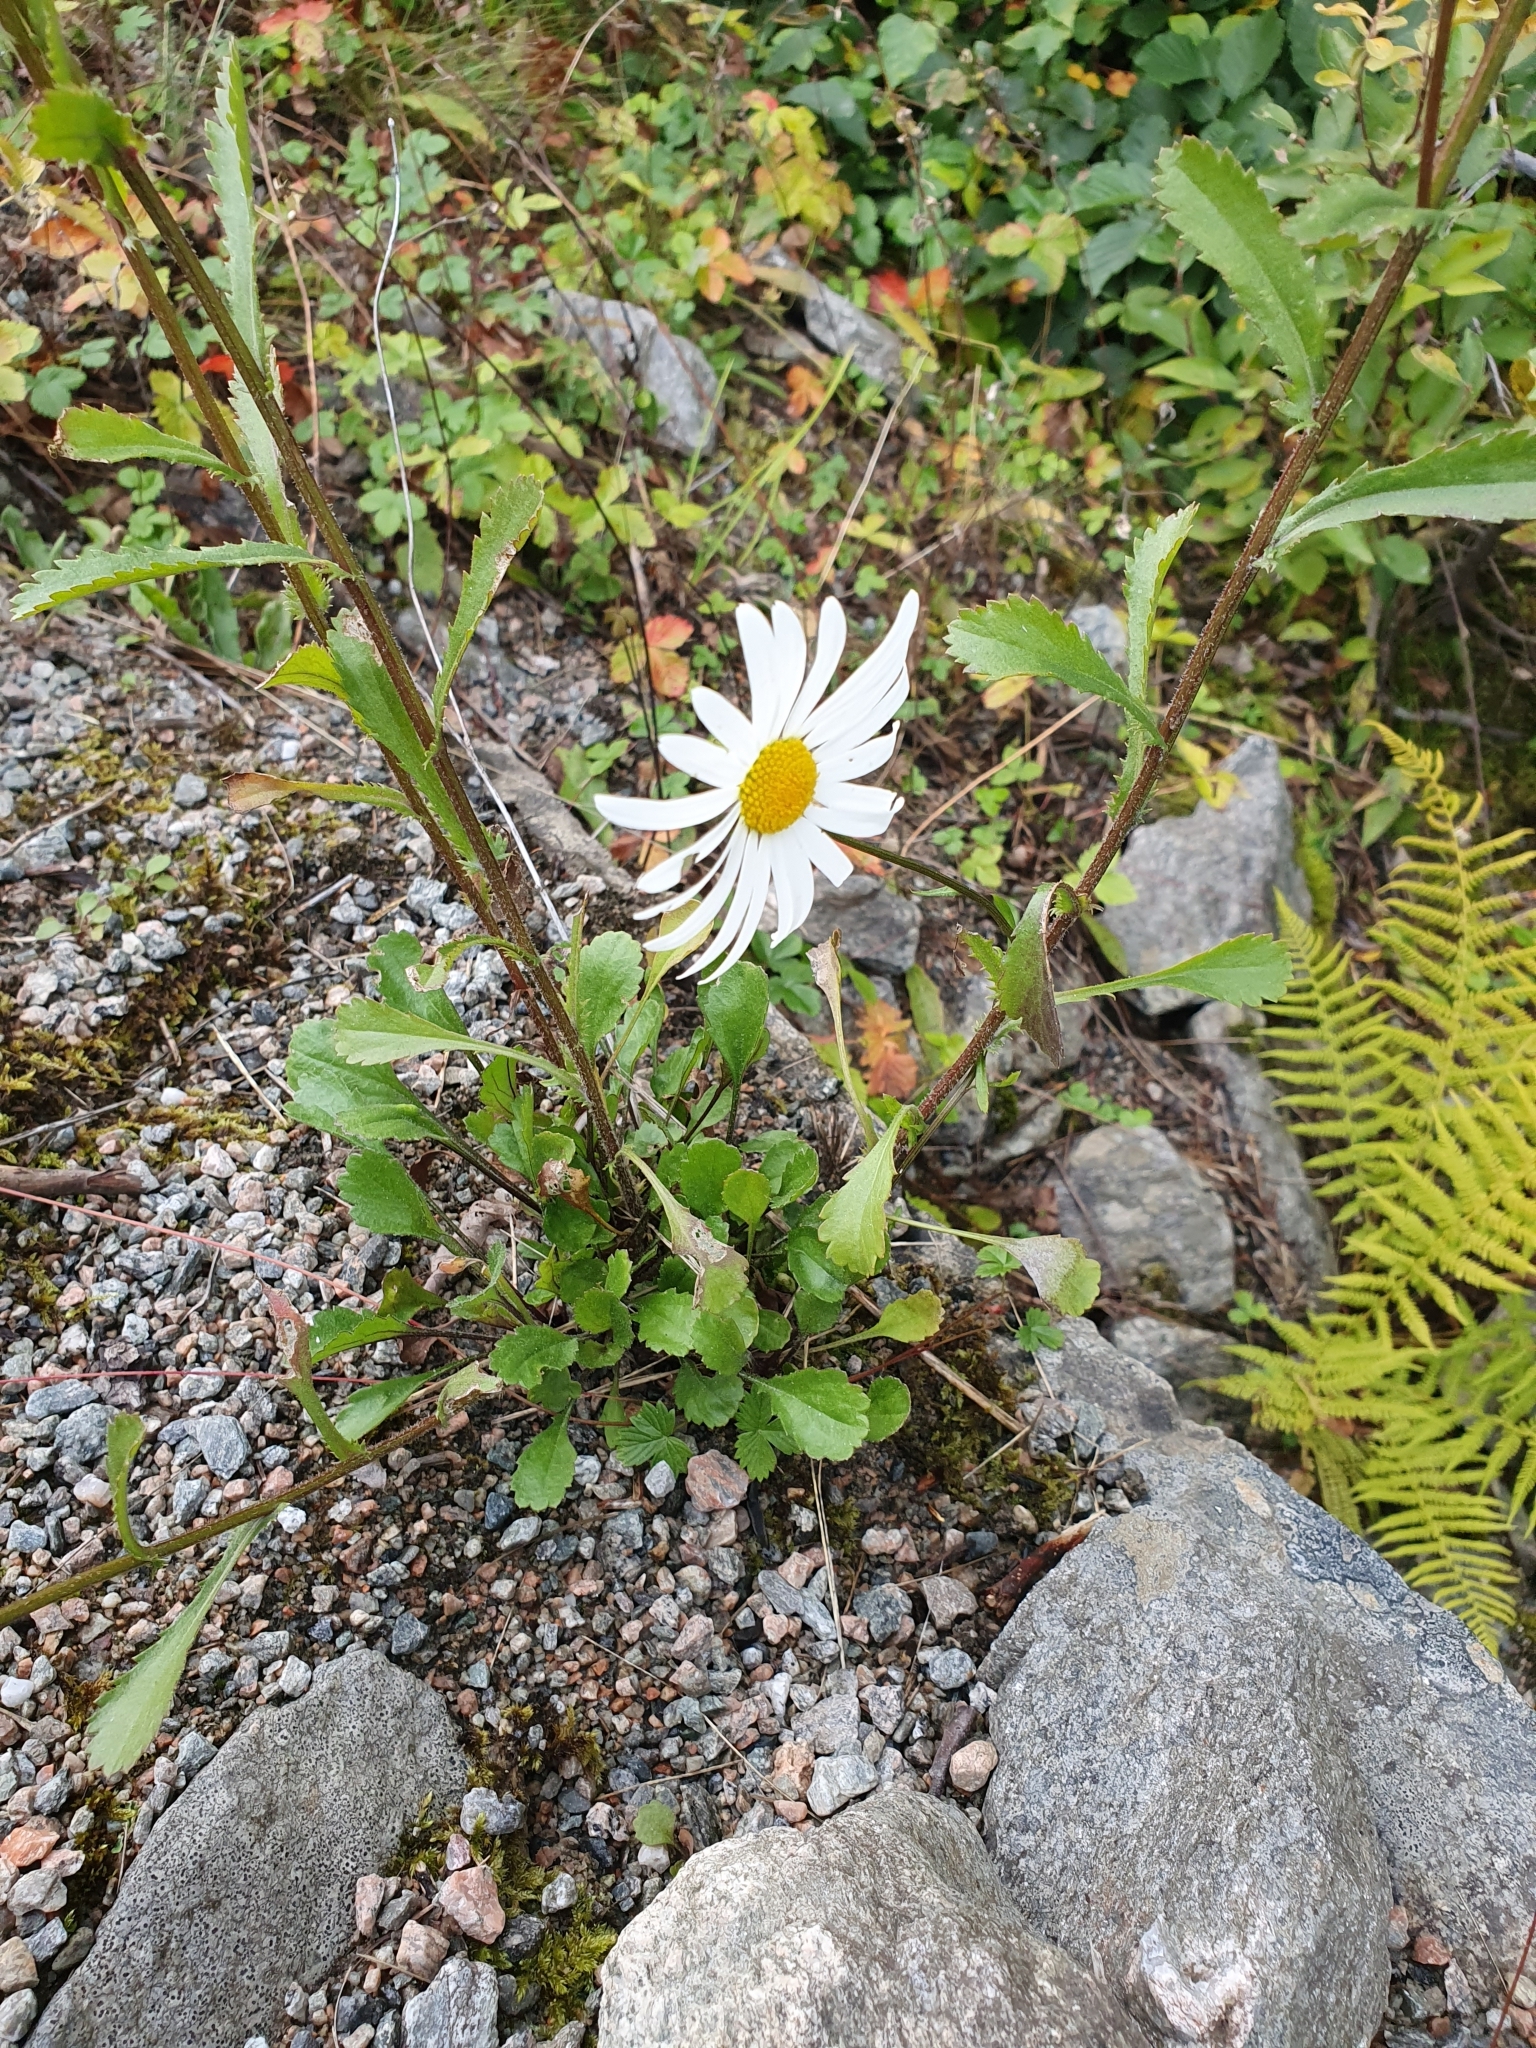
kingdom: Plantae
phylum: Tracheophyta
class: Magnoliopsida
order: Asterales
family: Asteraceae
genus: Leucanthemum
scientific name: Leucanthemum vulgare
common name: Oxeye daisy
